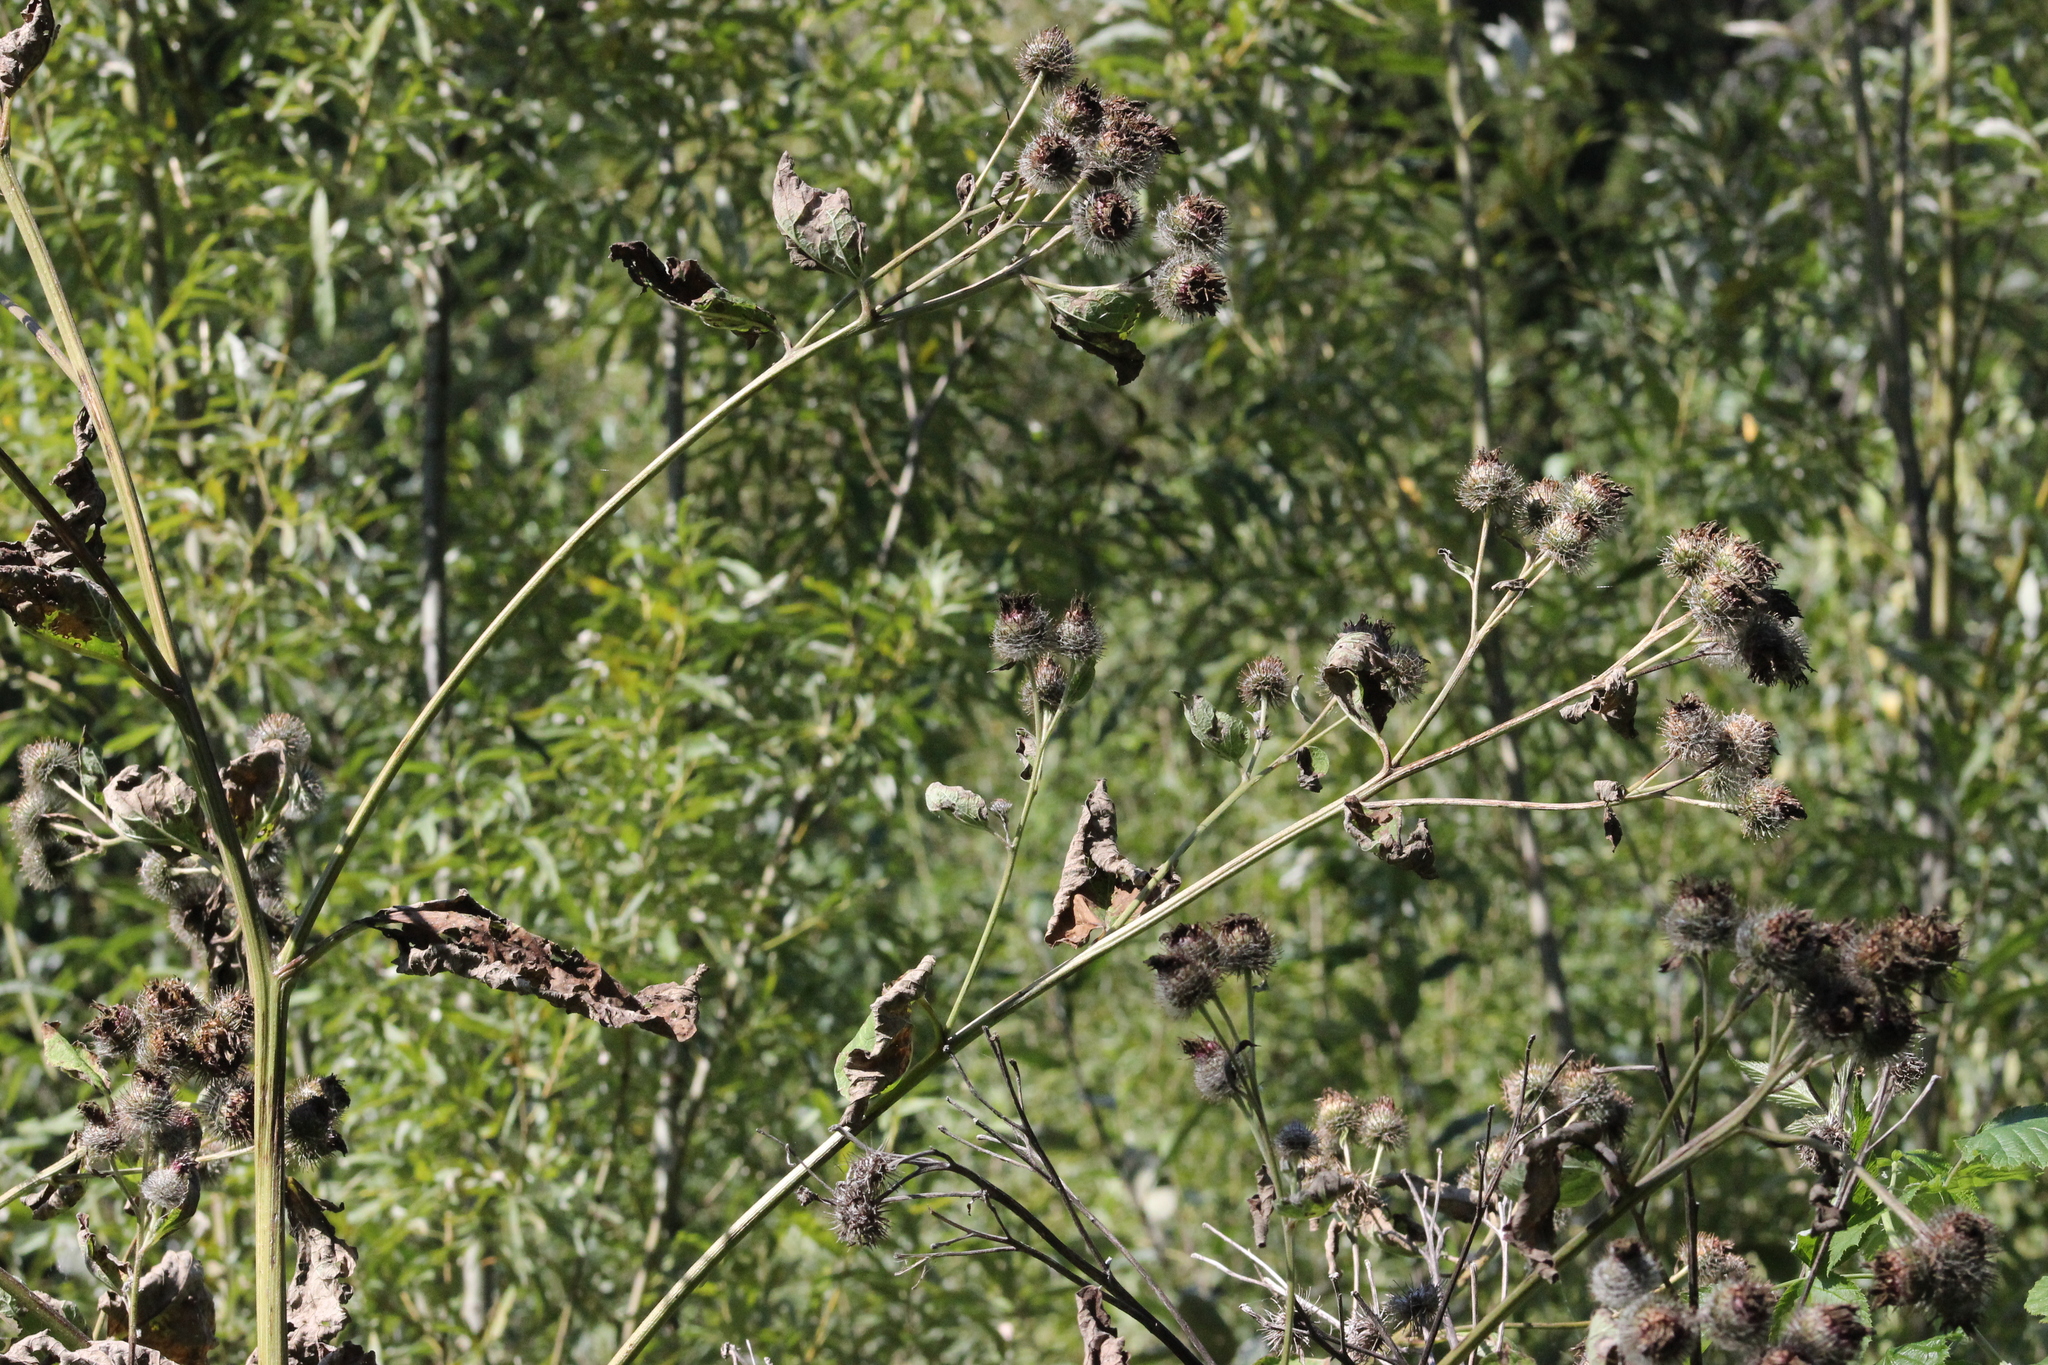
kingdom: Plantae
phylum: Tracheophyta
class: Magnoliopsida
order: Asterales
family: Asteraceae
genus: Arctium
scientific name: Arctium tomentosum
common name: Woolly burdock
